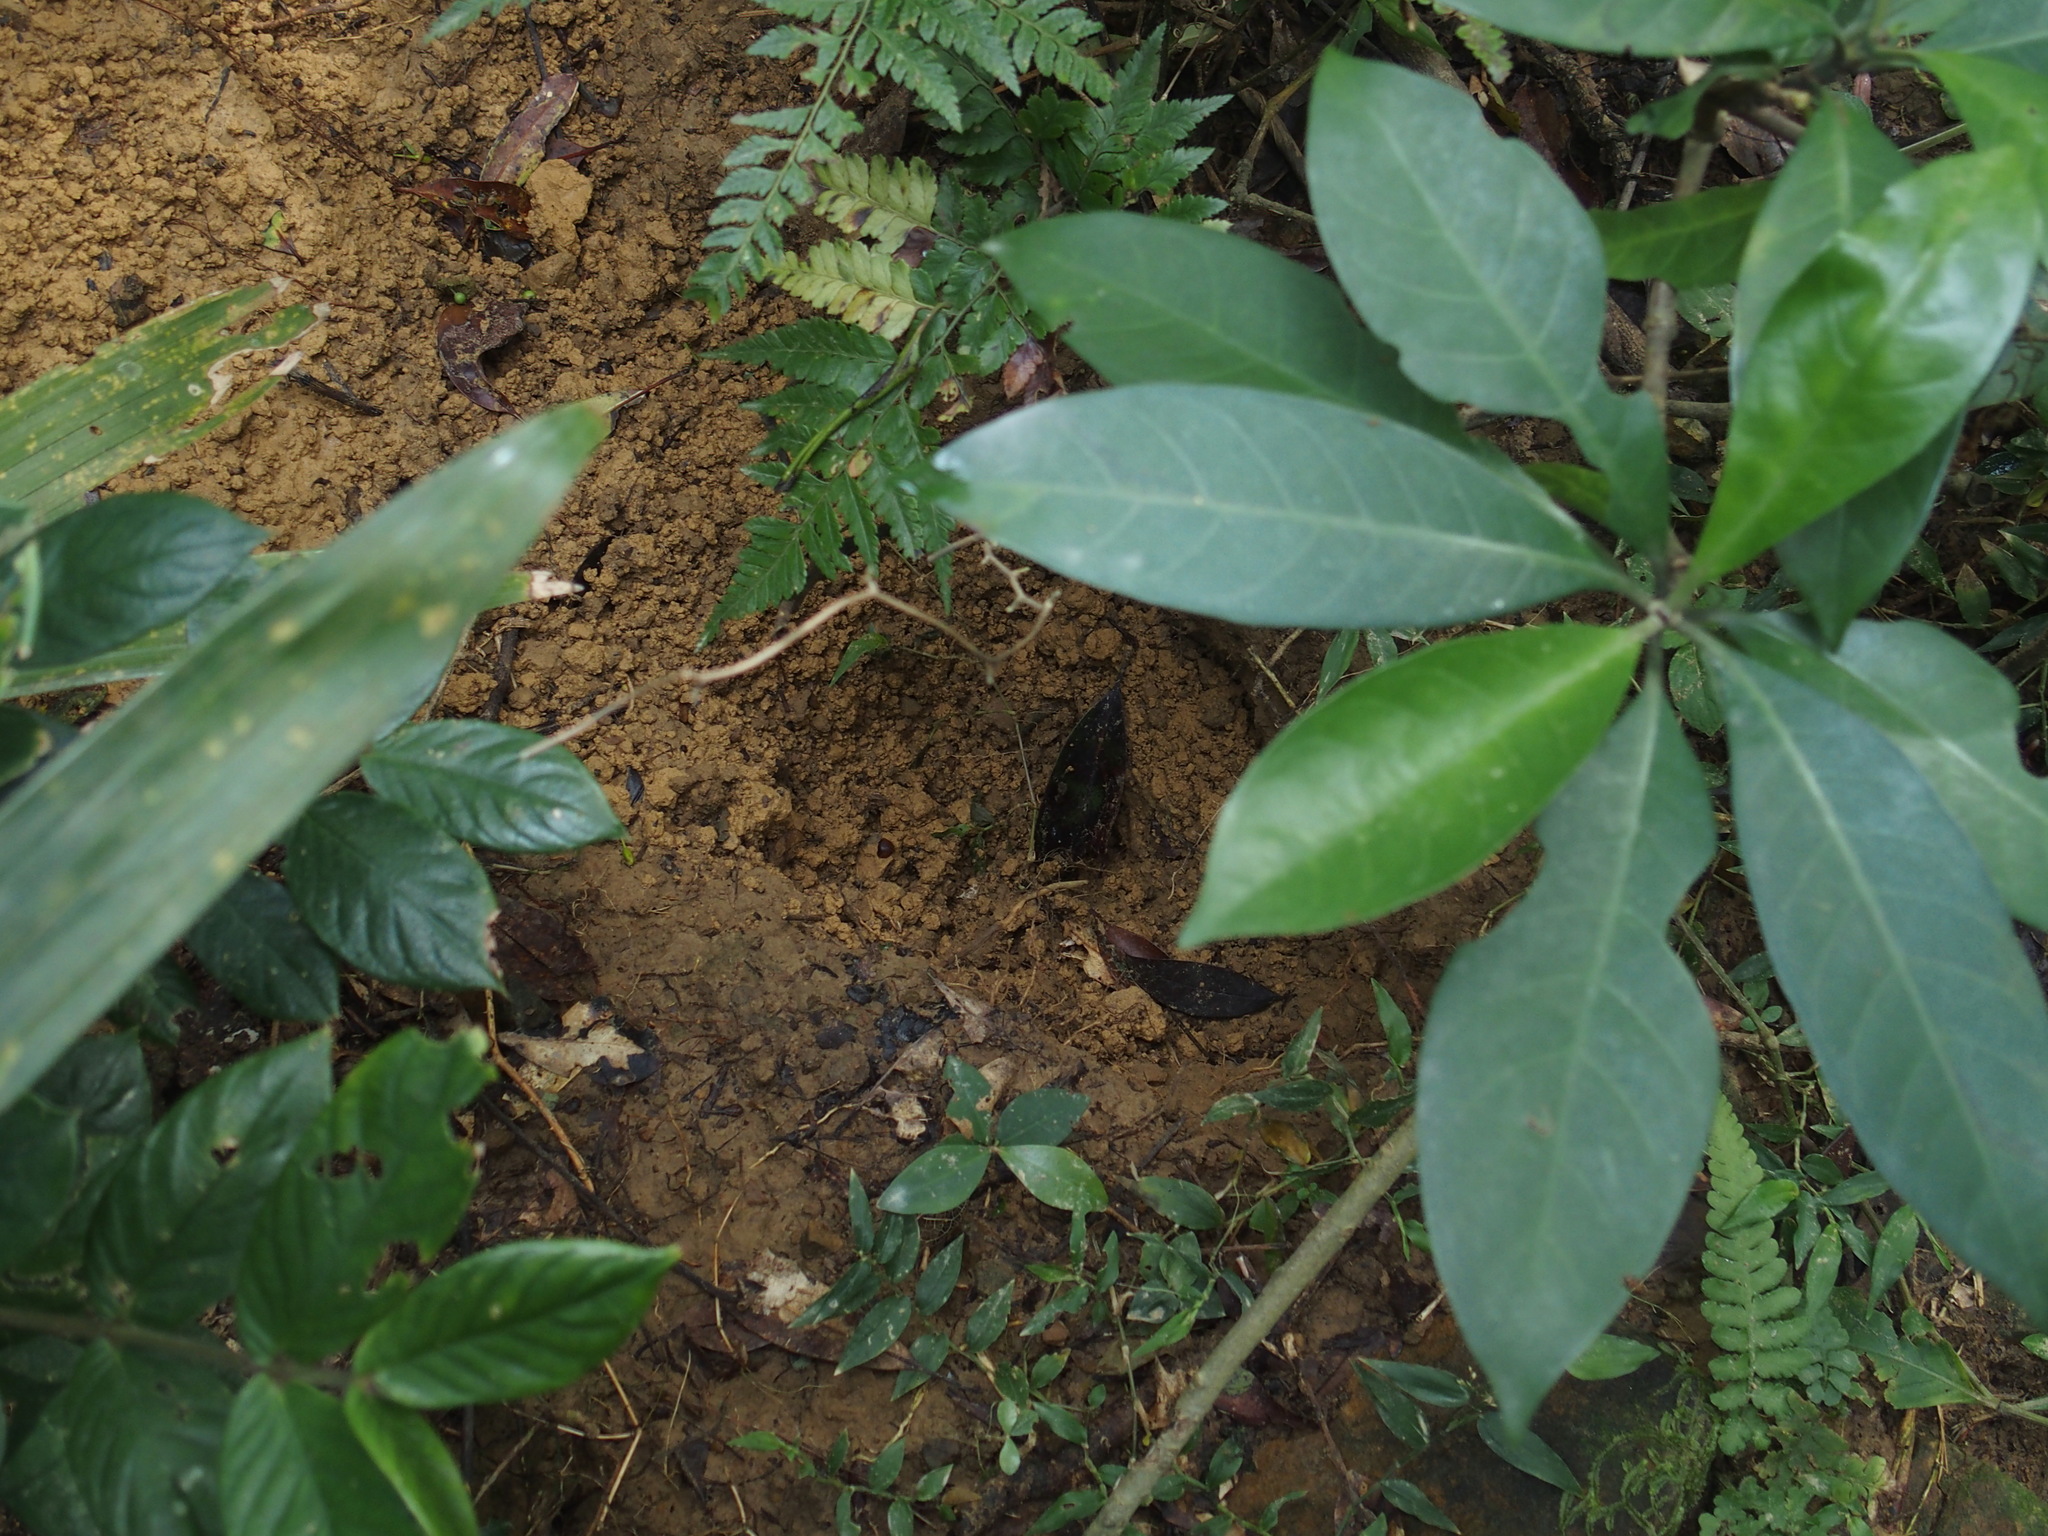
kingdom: Animalia
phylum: Chordata
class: Mammalia
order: Pholidota
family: Manidae
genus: Manis
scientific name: Manis pentadactyla
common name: Chinese pangolin
